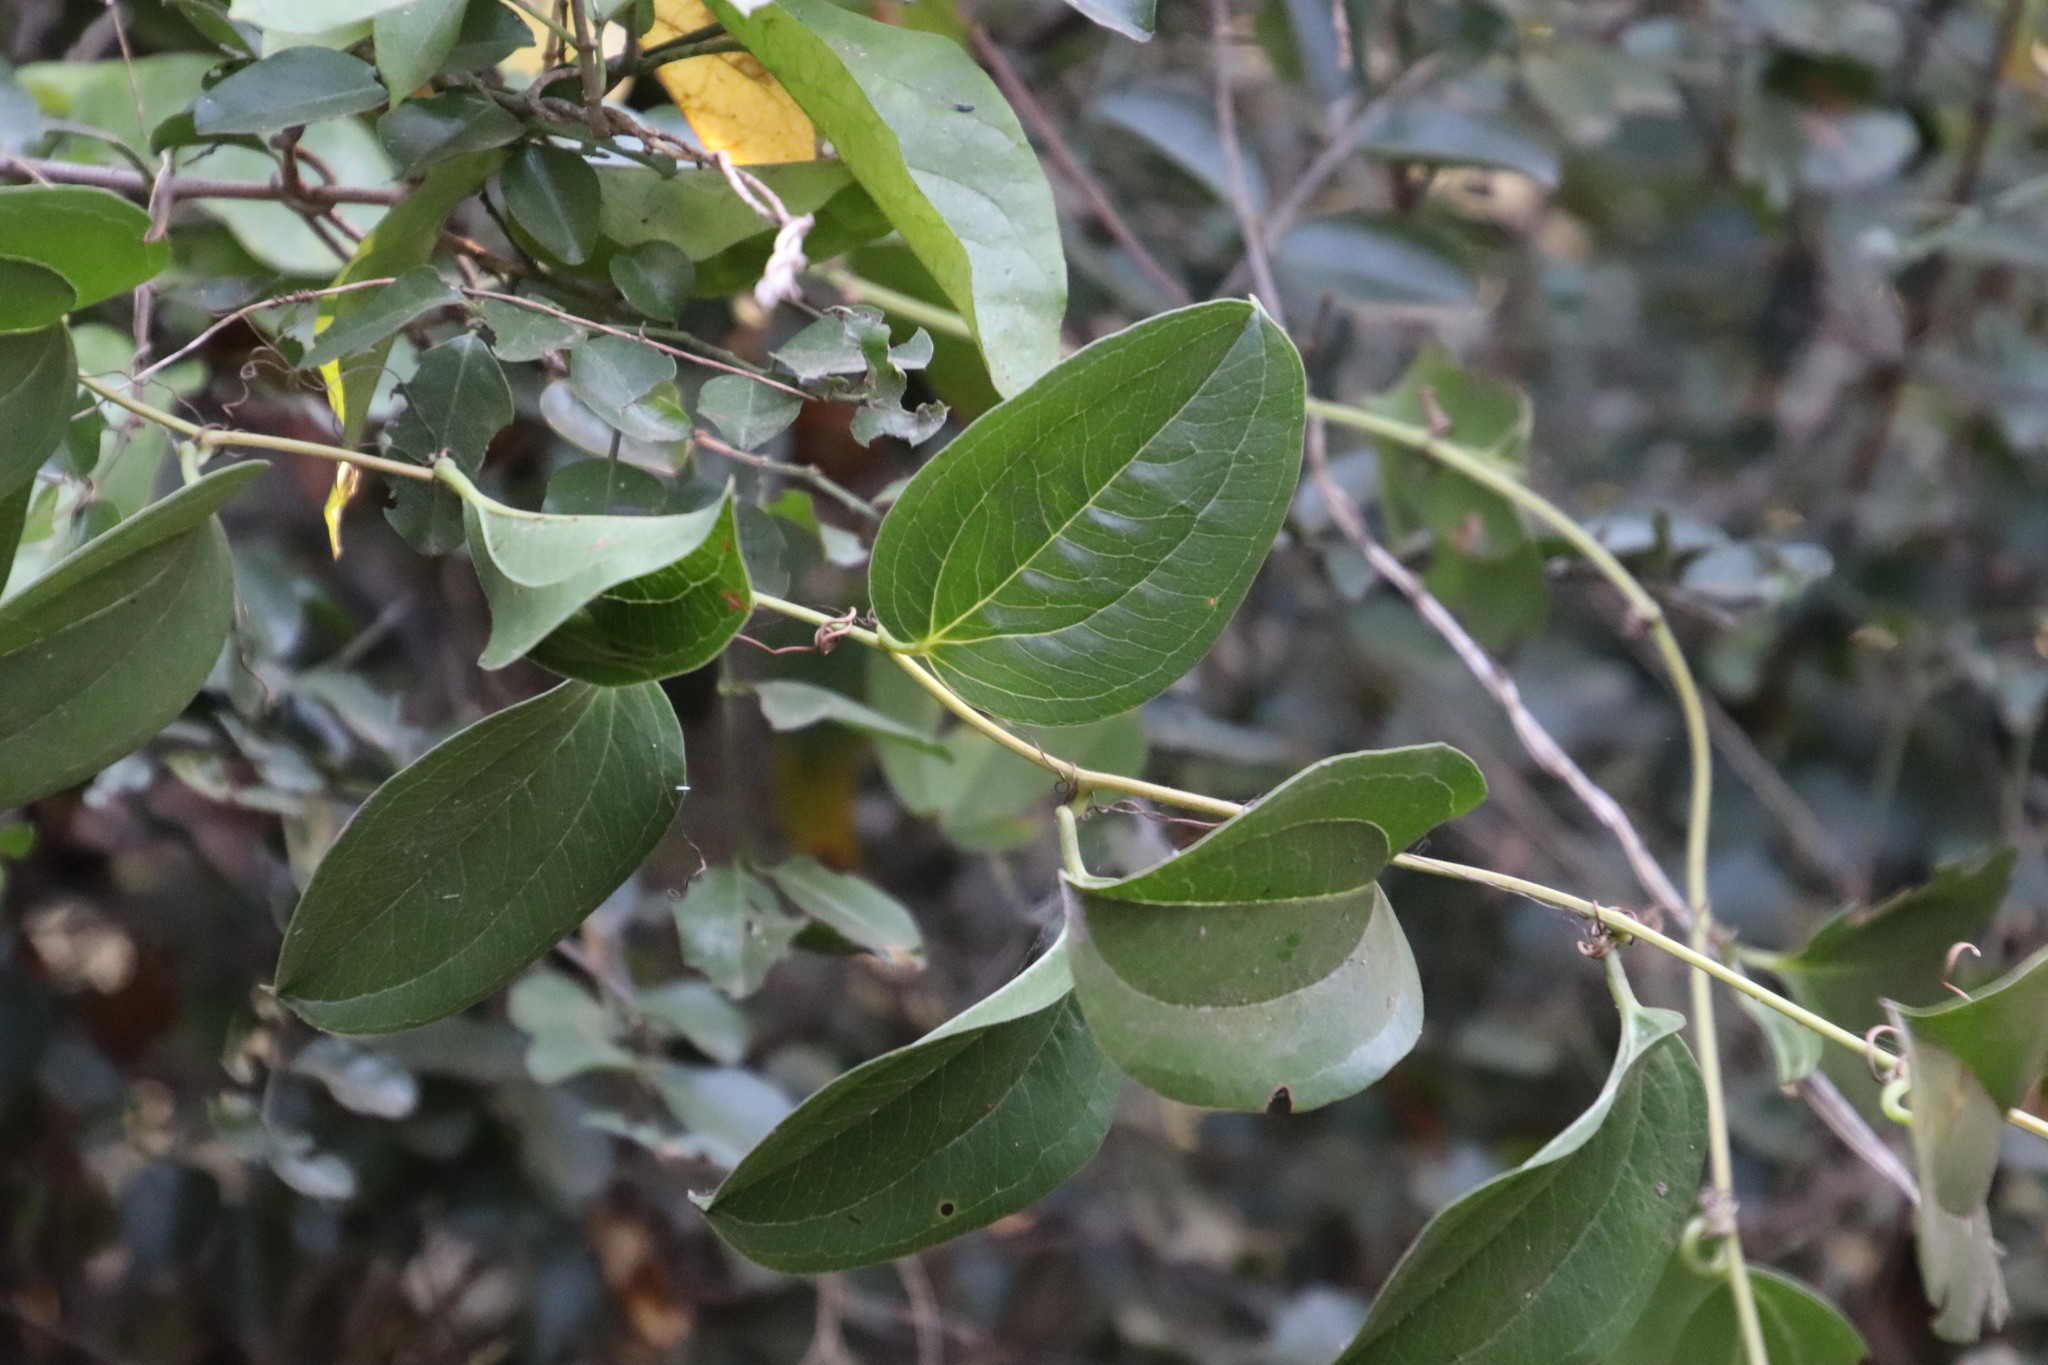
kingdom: Plantae
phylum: Tracheophyta
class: Liliopsida
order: Liliales
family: Smilacaceae
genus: Smilax
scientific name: Smilax anceps
